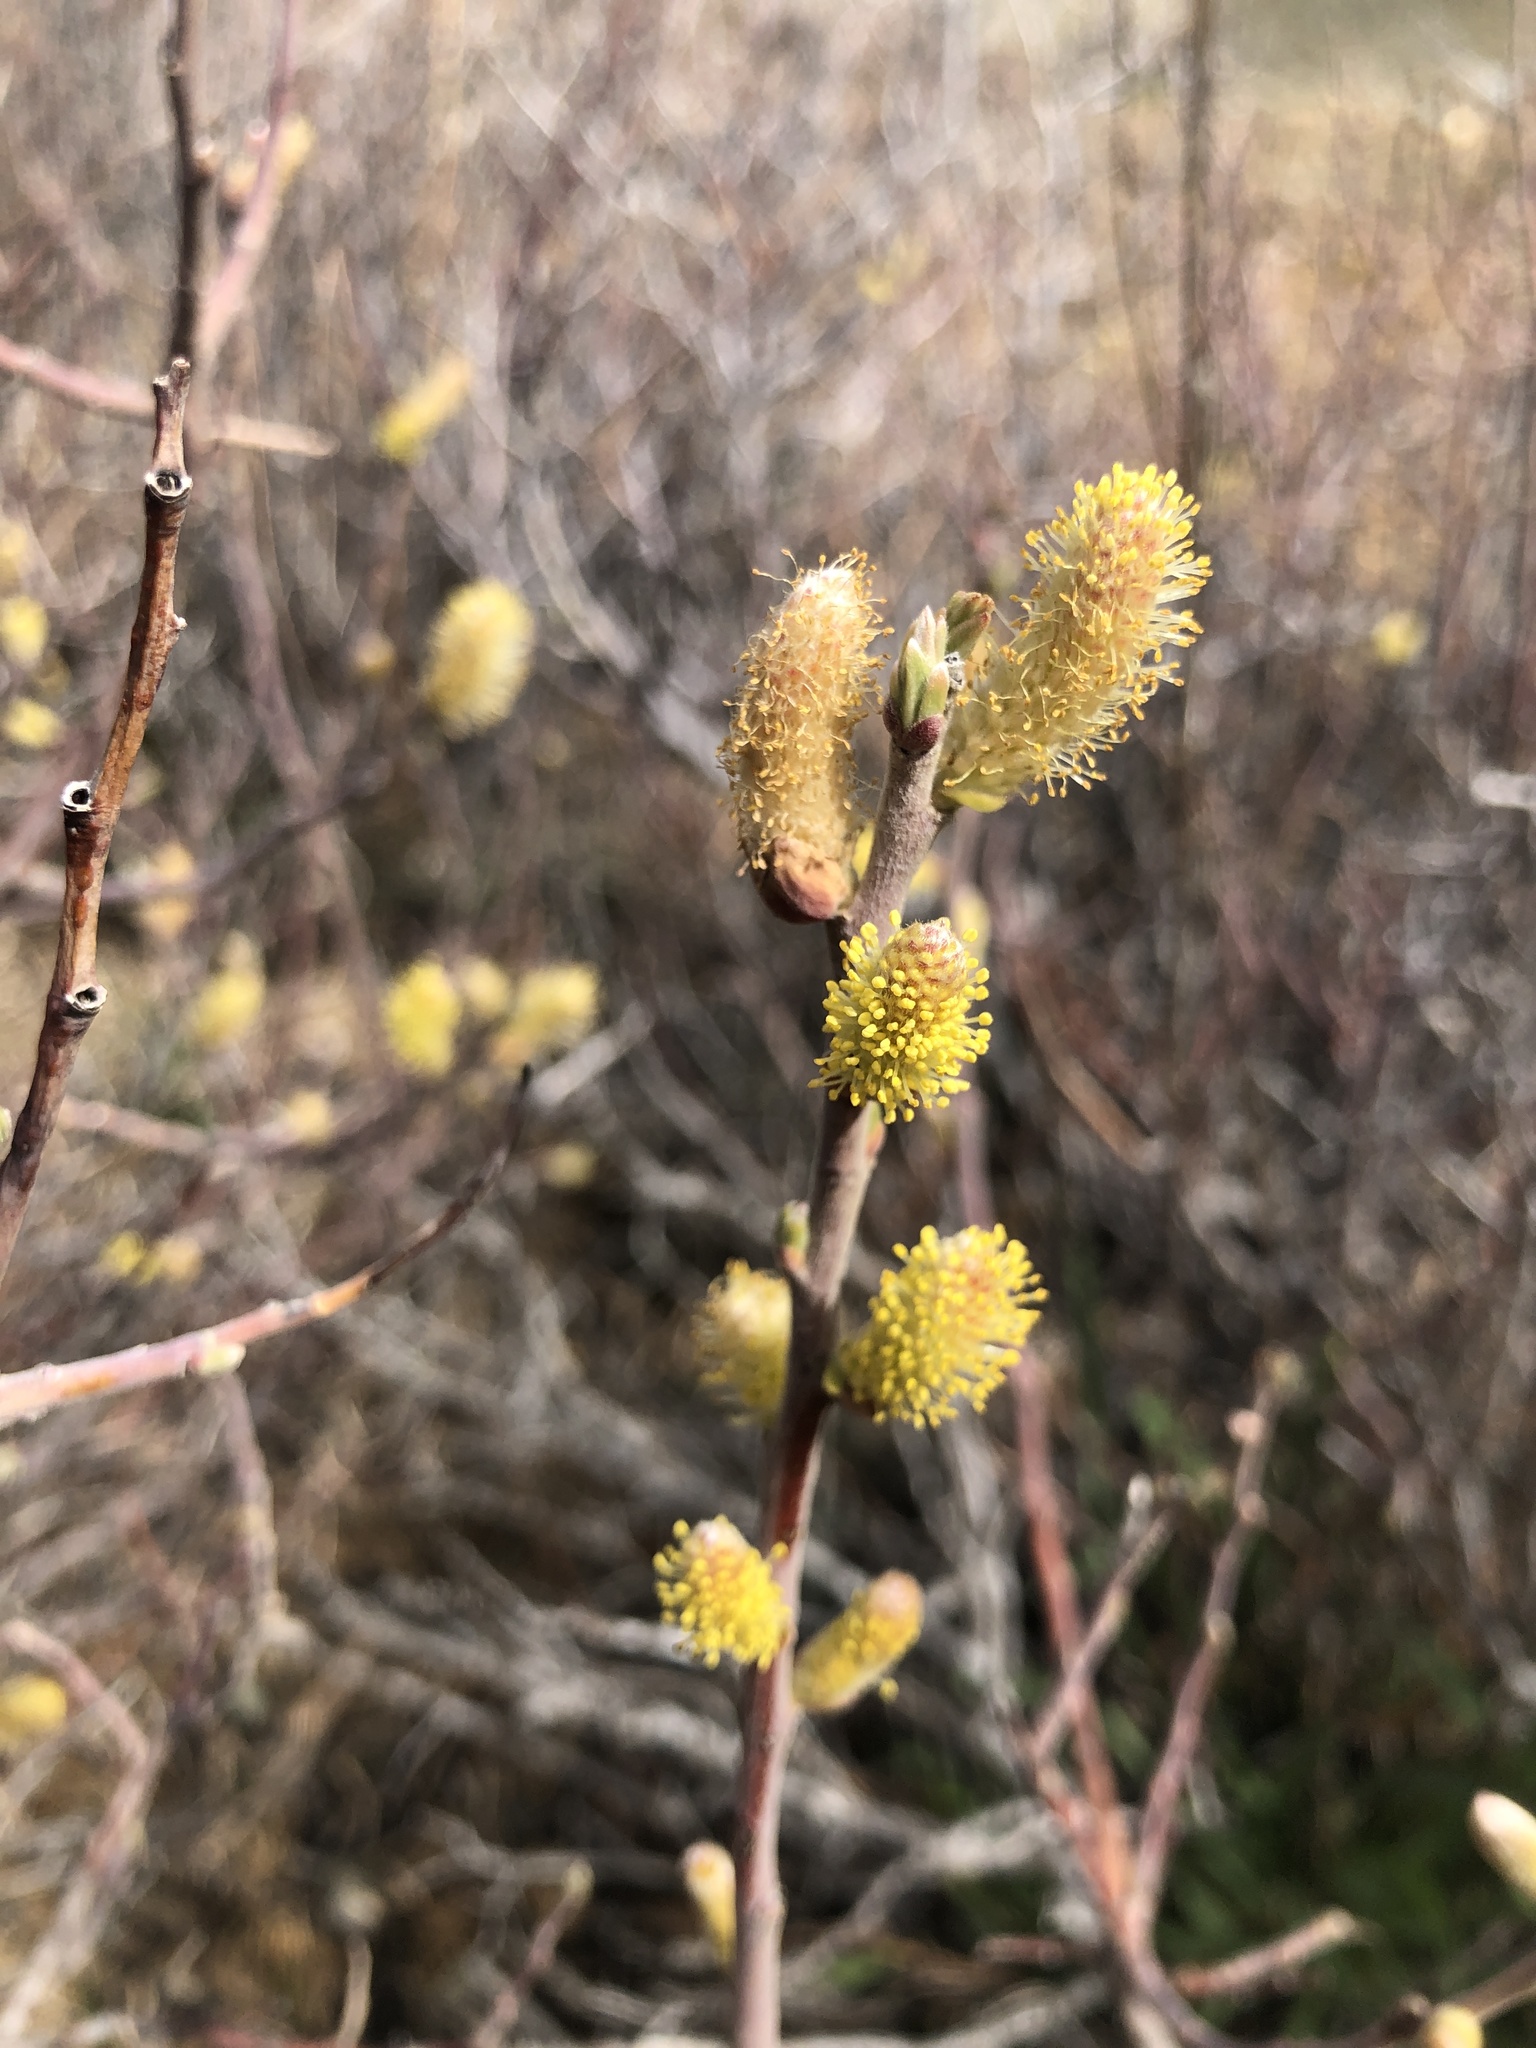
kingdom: Plantae
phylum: Tracheophyta
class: Magnoliopsida
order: Malpighiales
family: Salicaceae
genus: Salix
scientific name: Salix breweri
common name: Brewer’s willow
